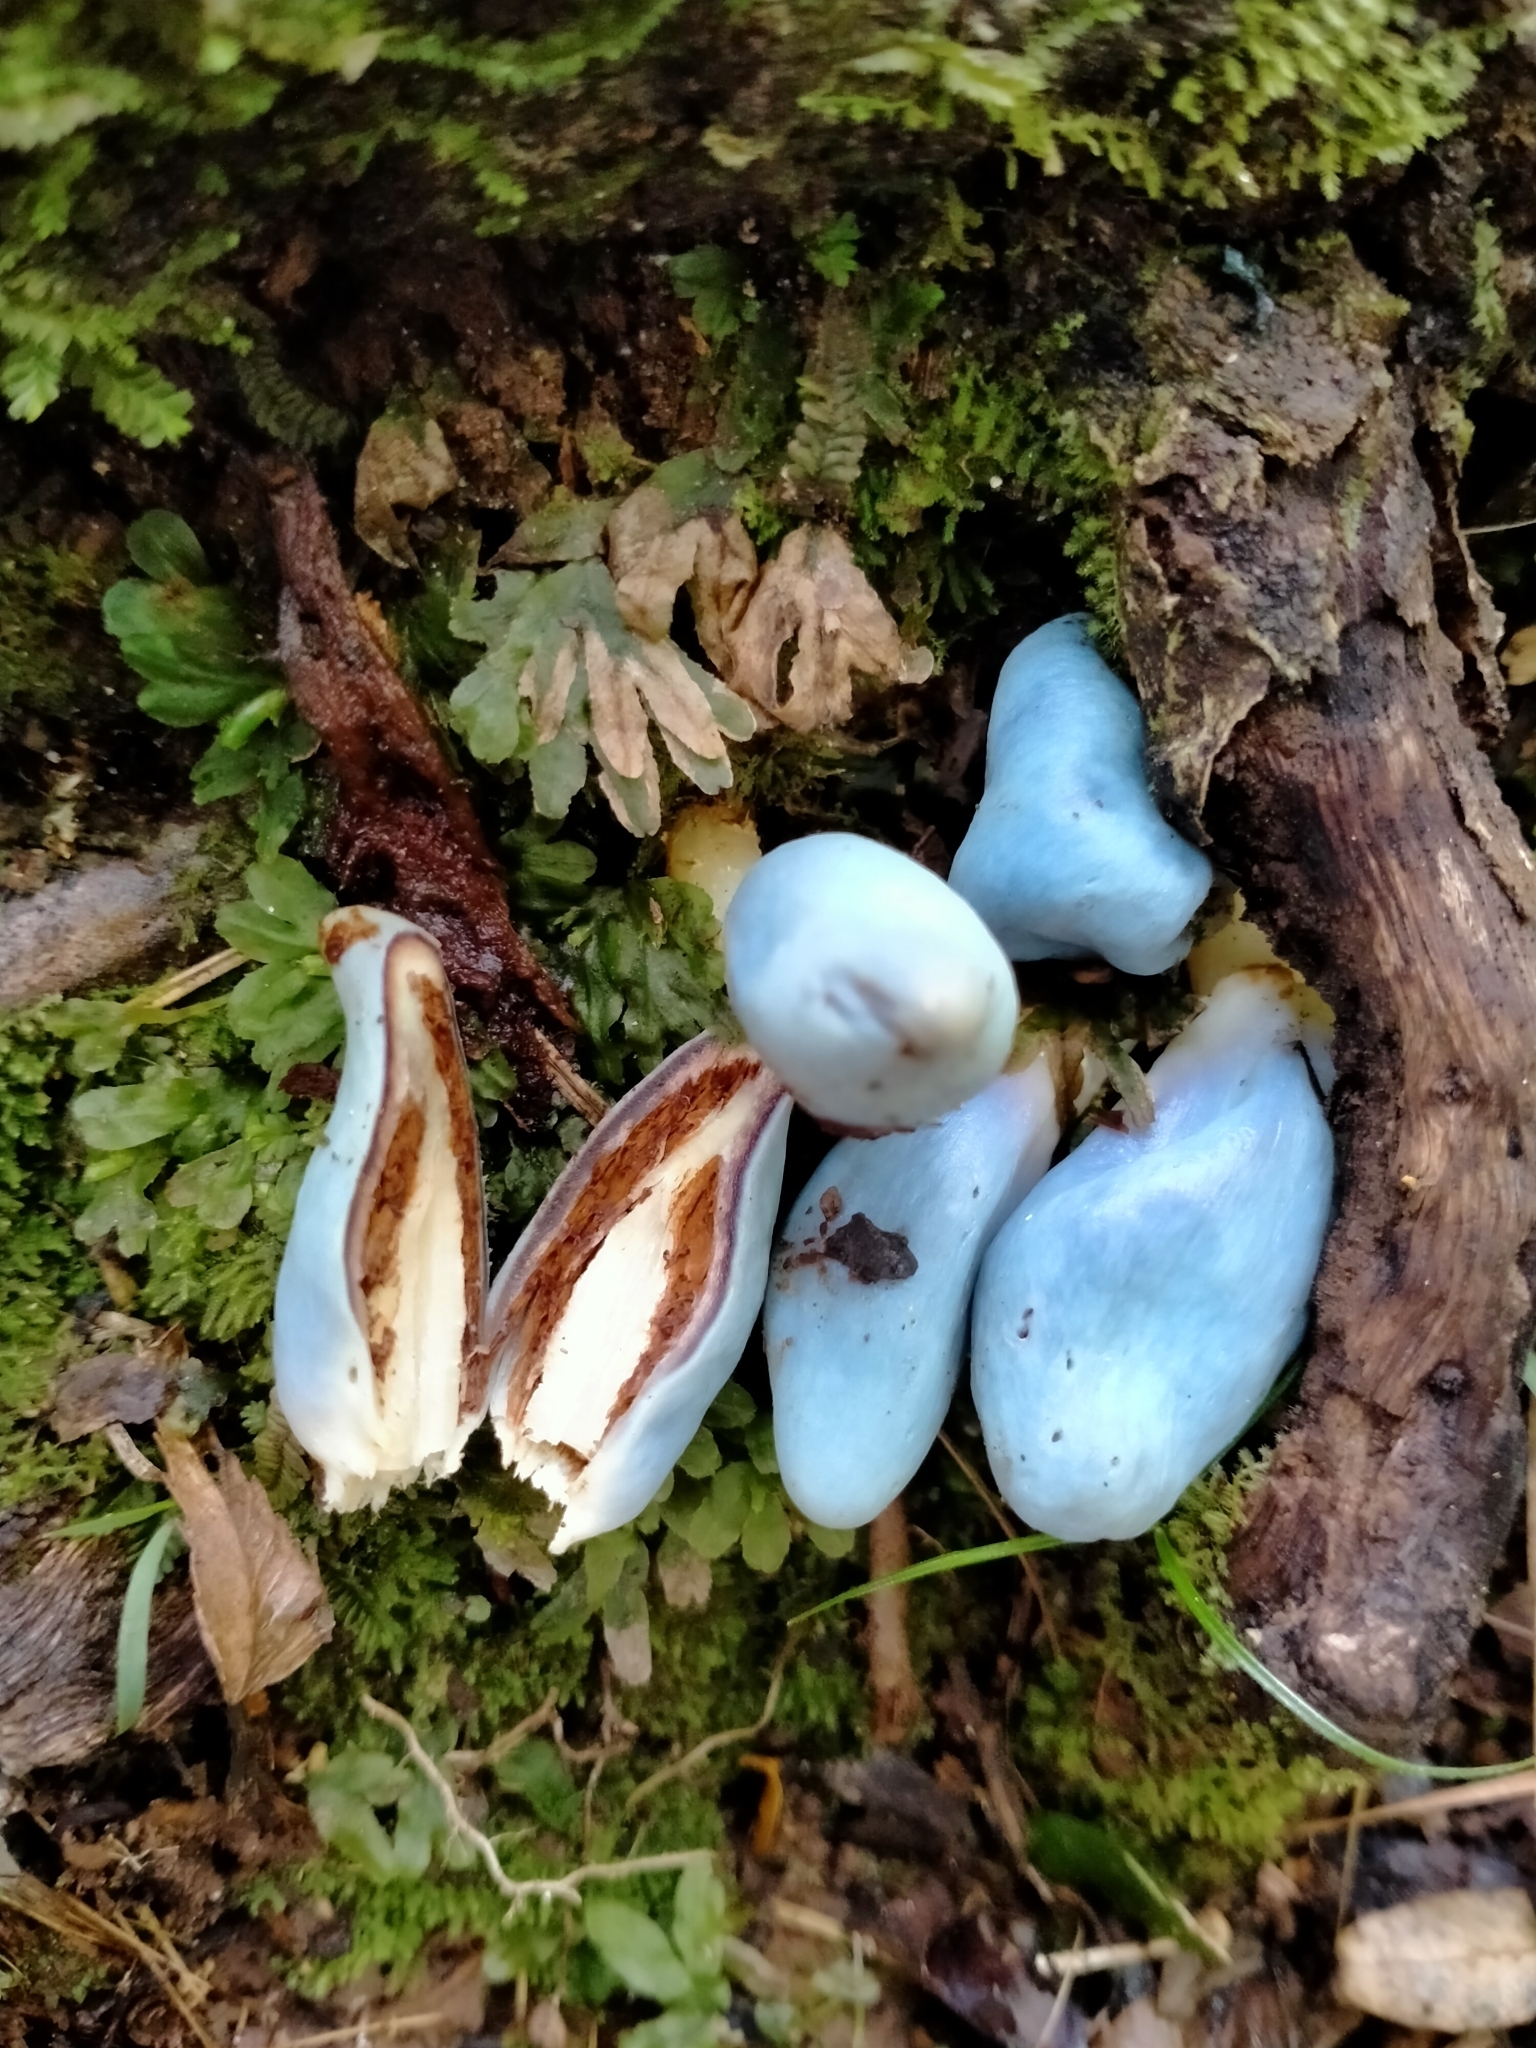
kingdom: Fungi
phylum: Basidiomycota
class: Agaricomycetes
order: Agaricales
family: Agaricaceae
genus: Clavogaster
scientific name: Clavogaster virescens
